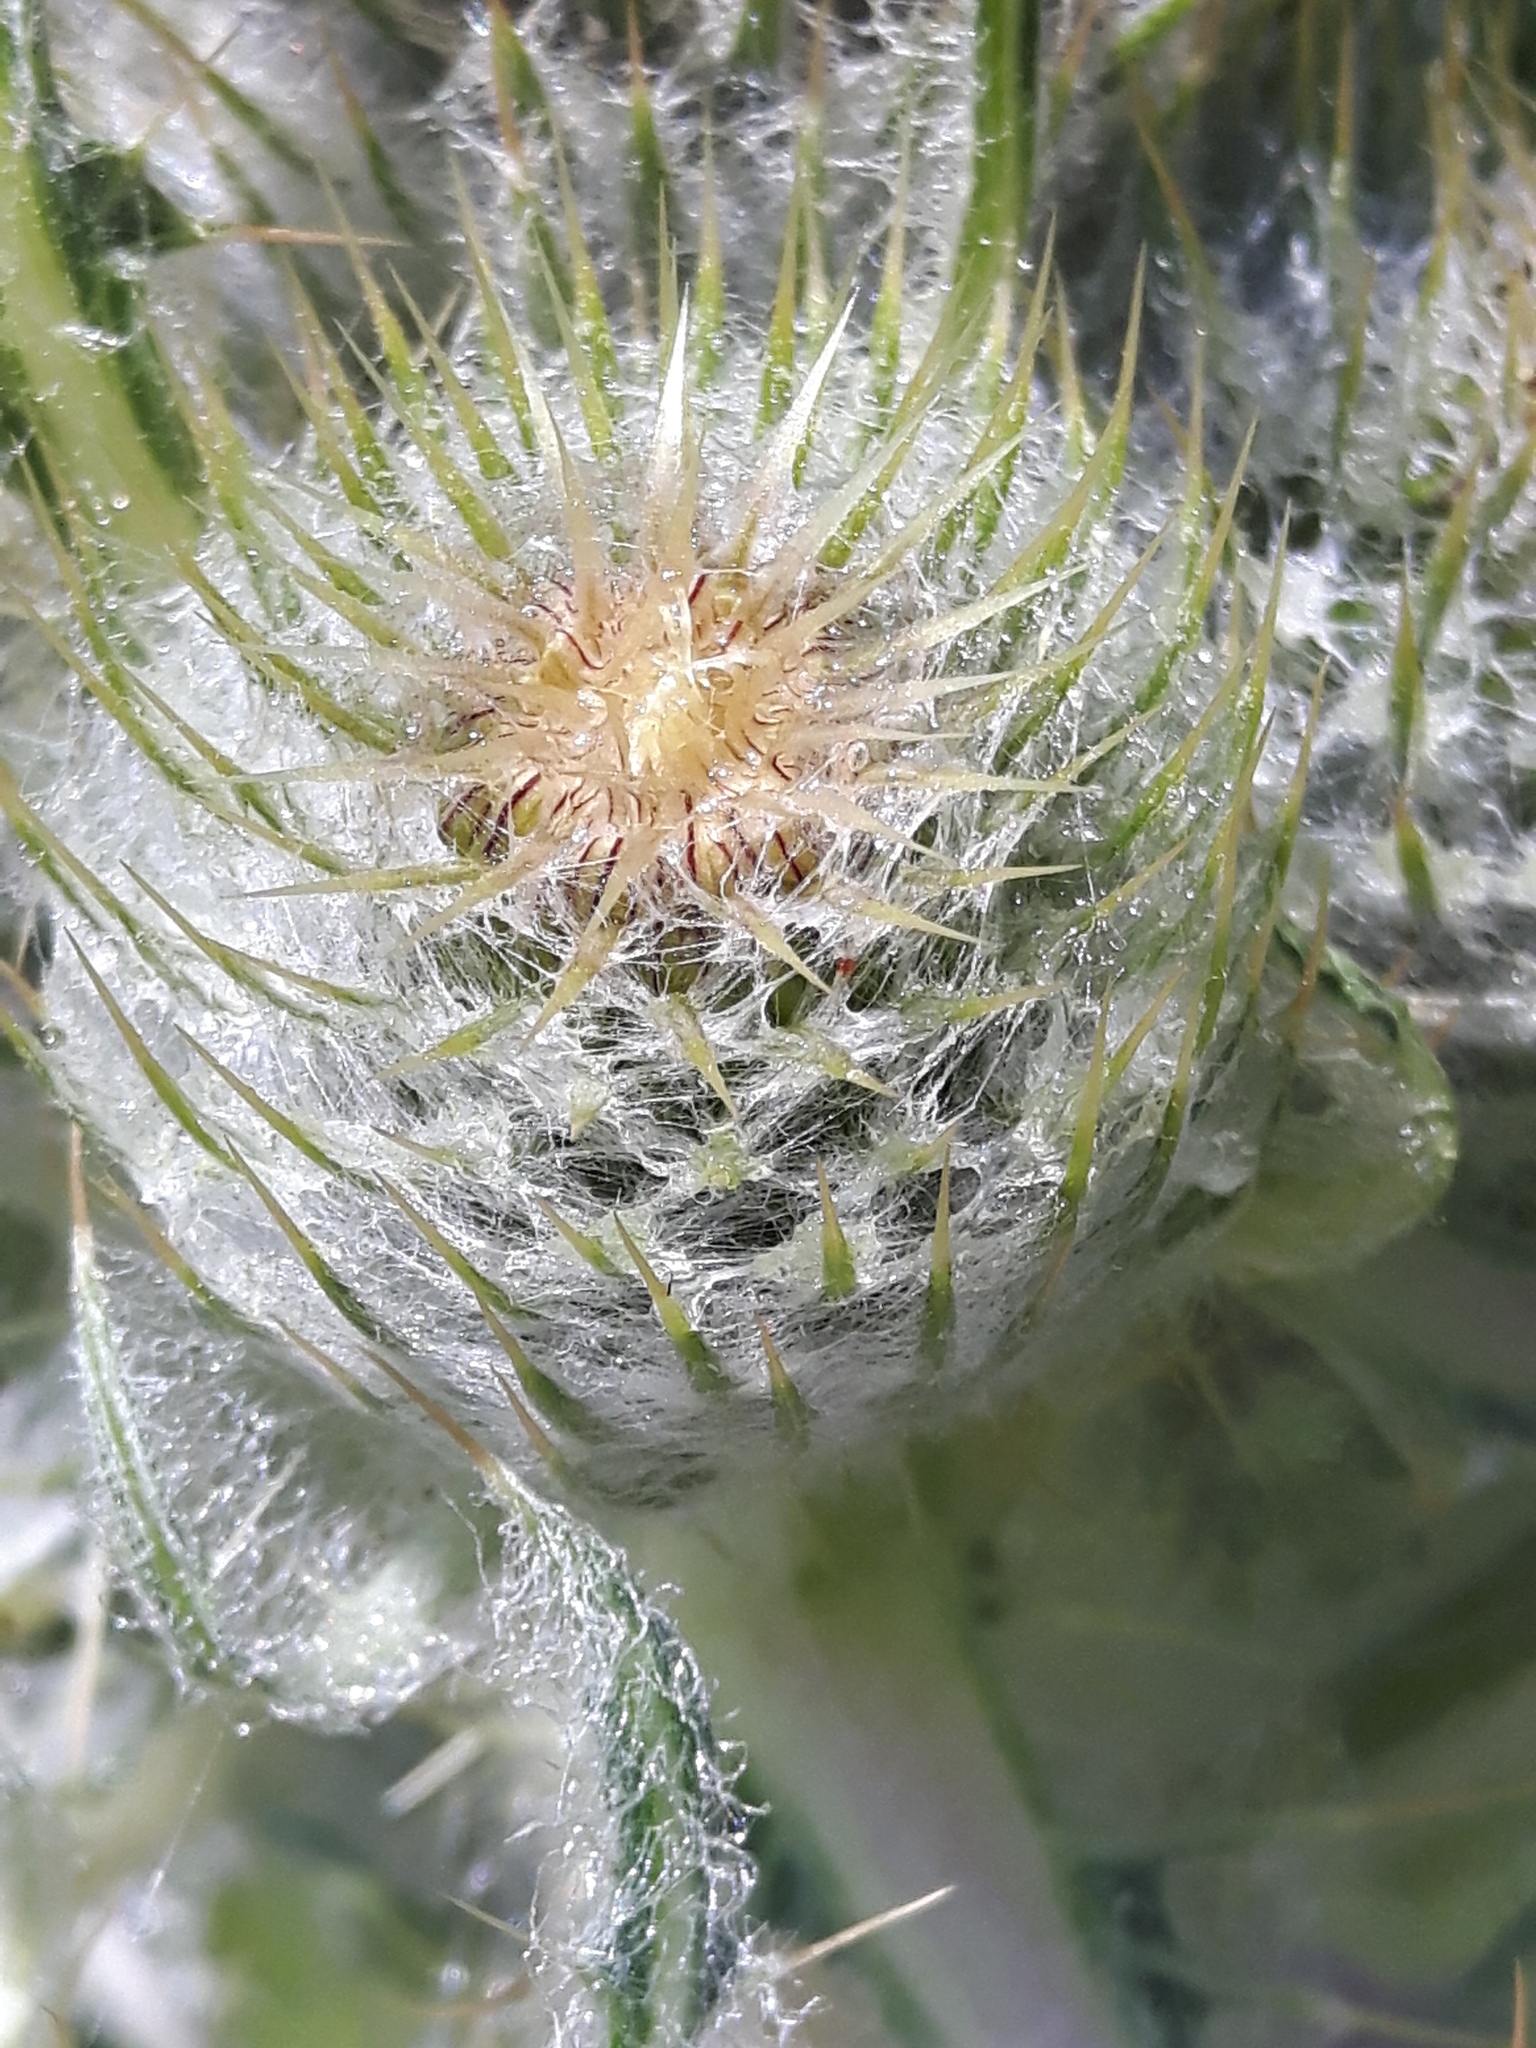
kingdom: Plantae
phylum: Tracheophyta
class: Magnoliopsida
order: Asterales
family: Asteraceae
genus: Cirsium
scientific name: Cirsium hookerianum
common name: Hooker's thistle
